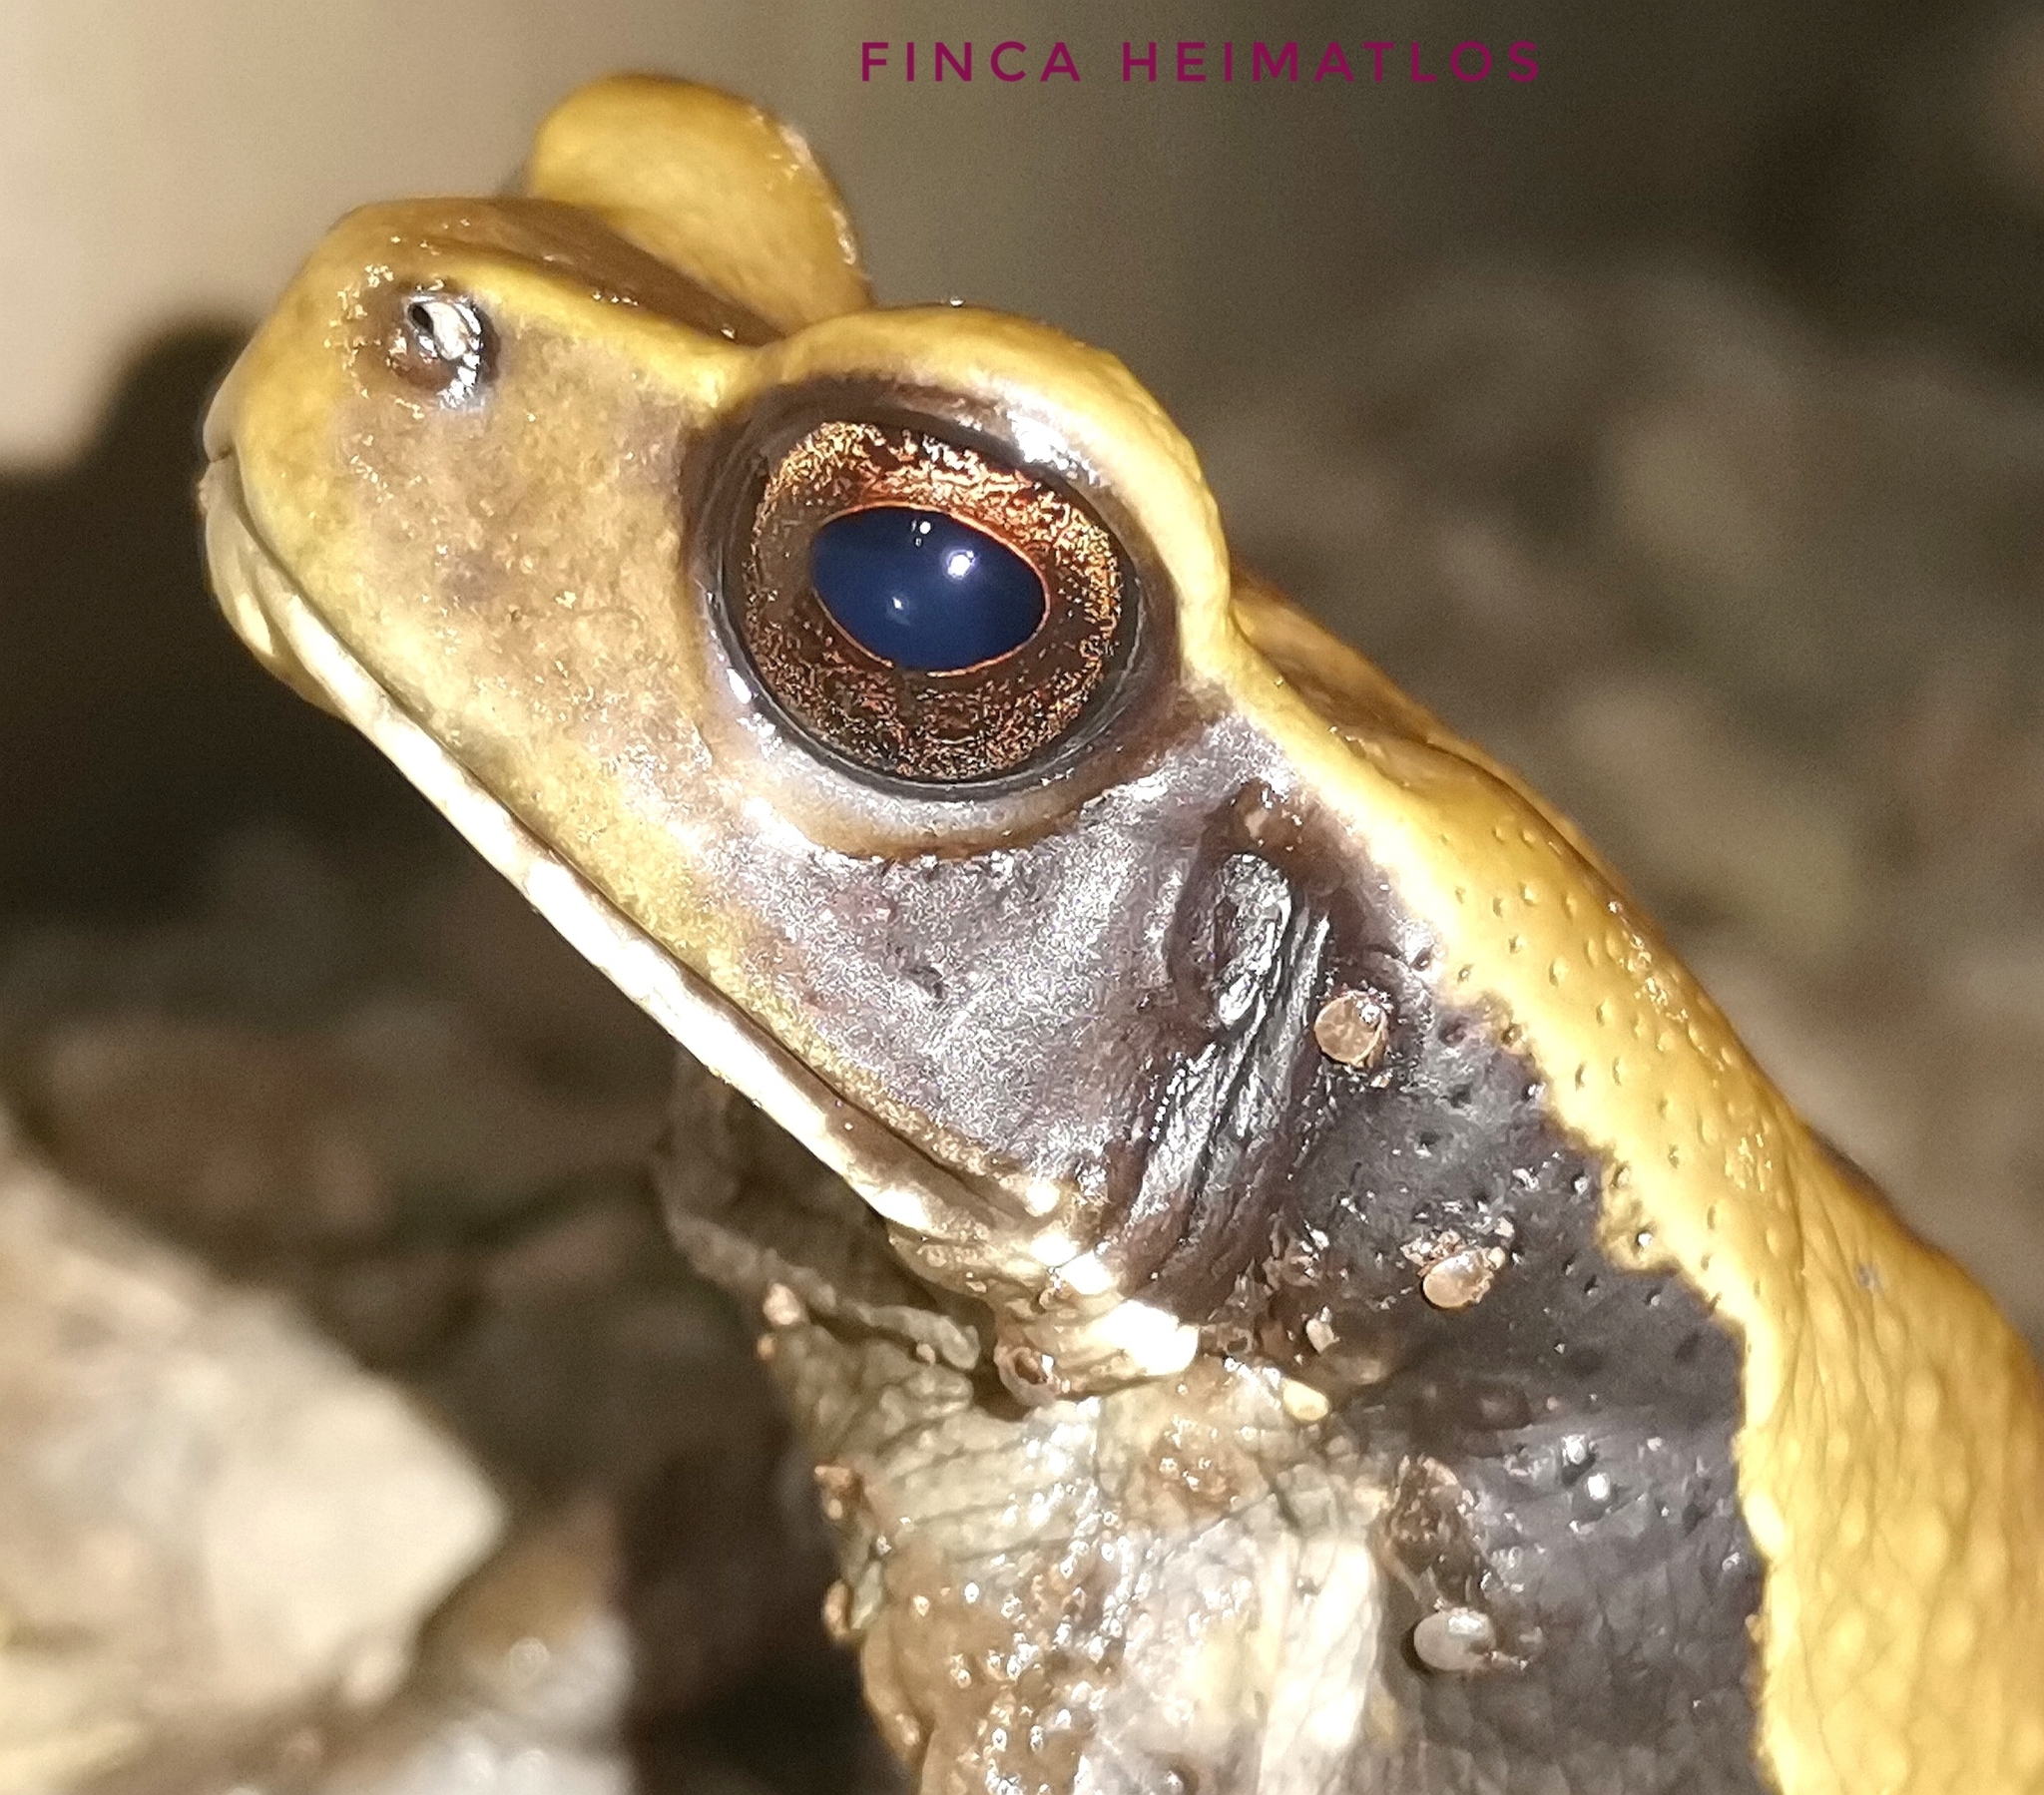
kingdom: Animalia
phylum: Chordata
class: Amphibia
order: Anura
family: Bufonidae
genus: Rhaebo
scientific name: Rhaebo ecuadorensis
